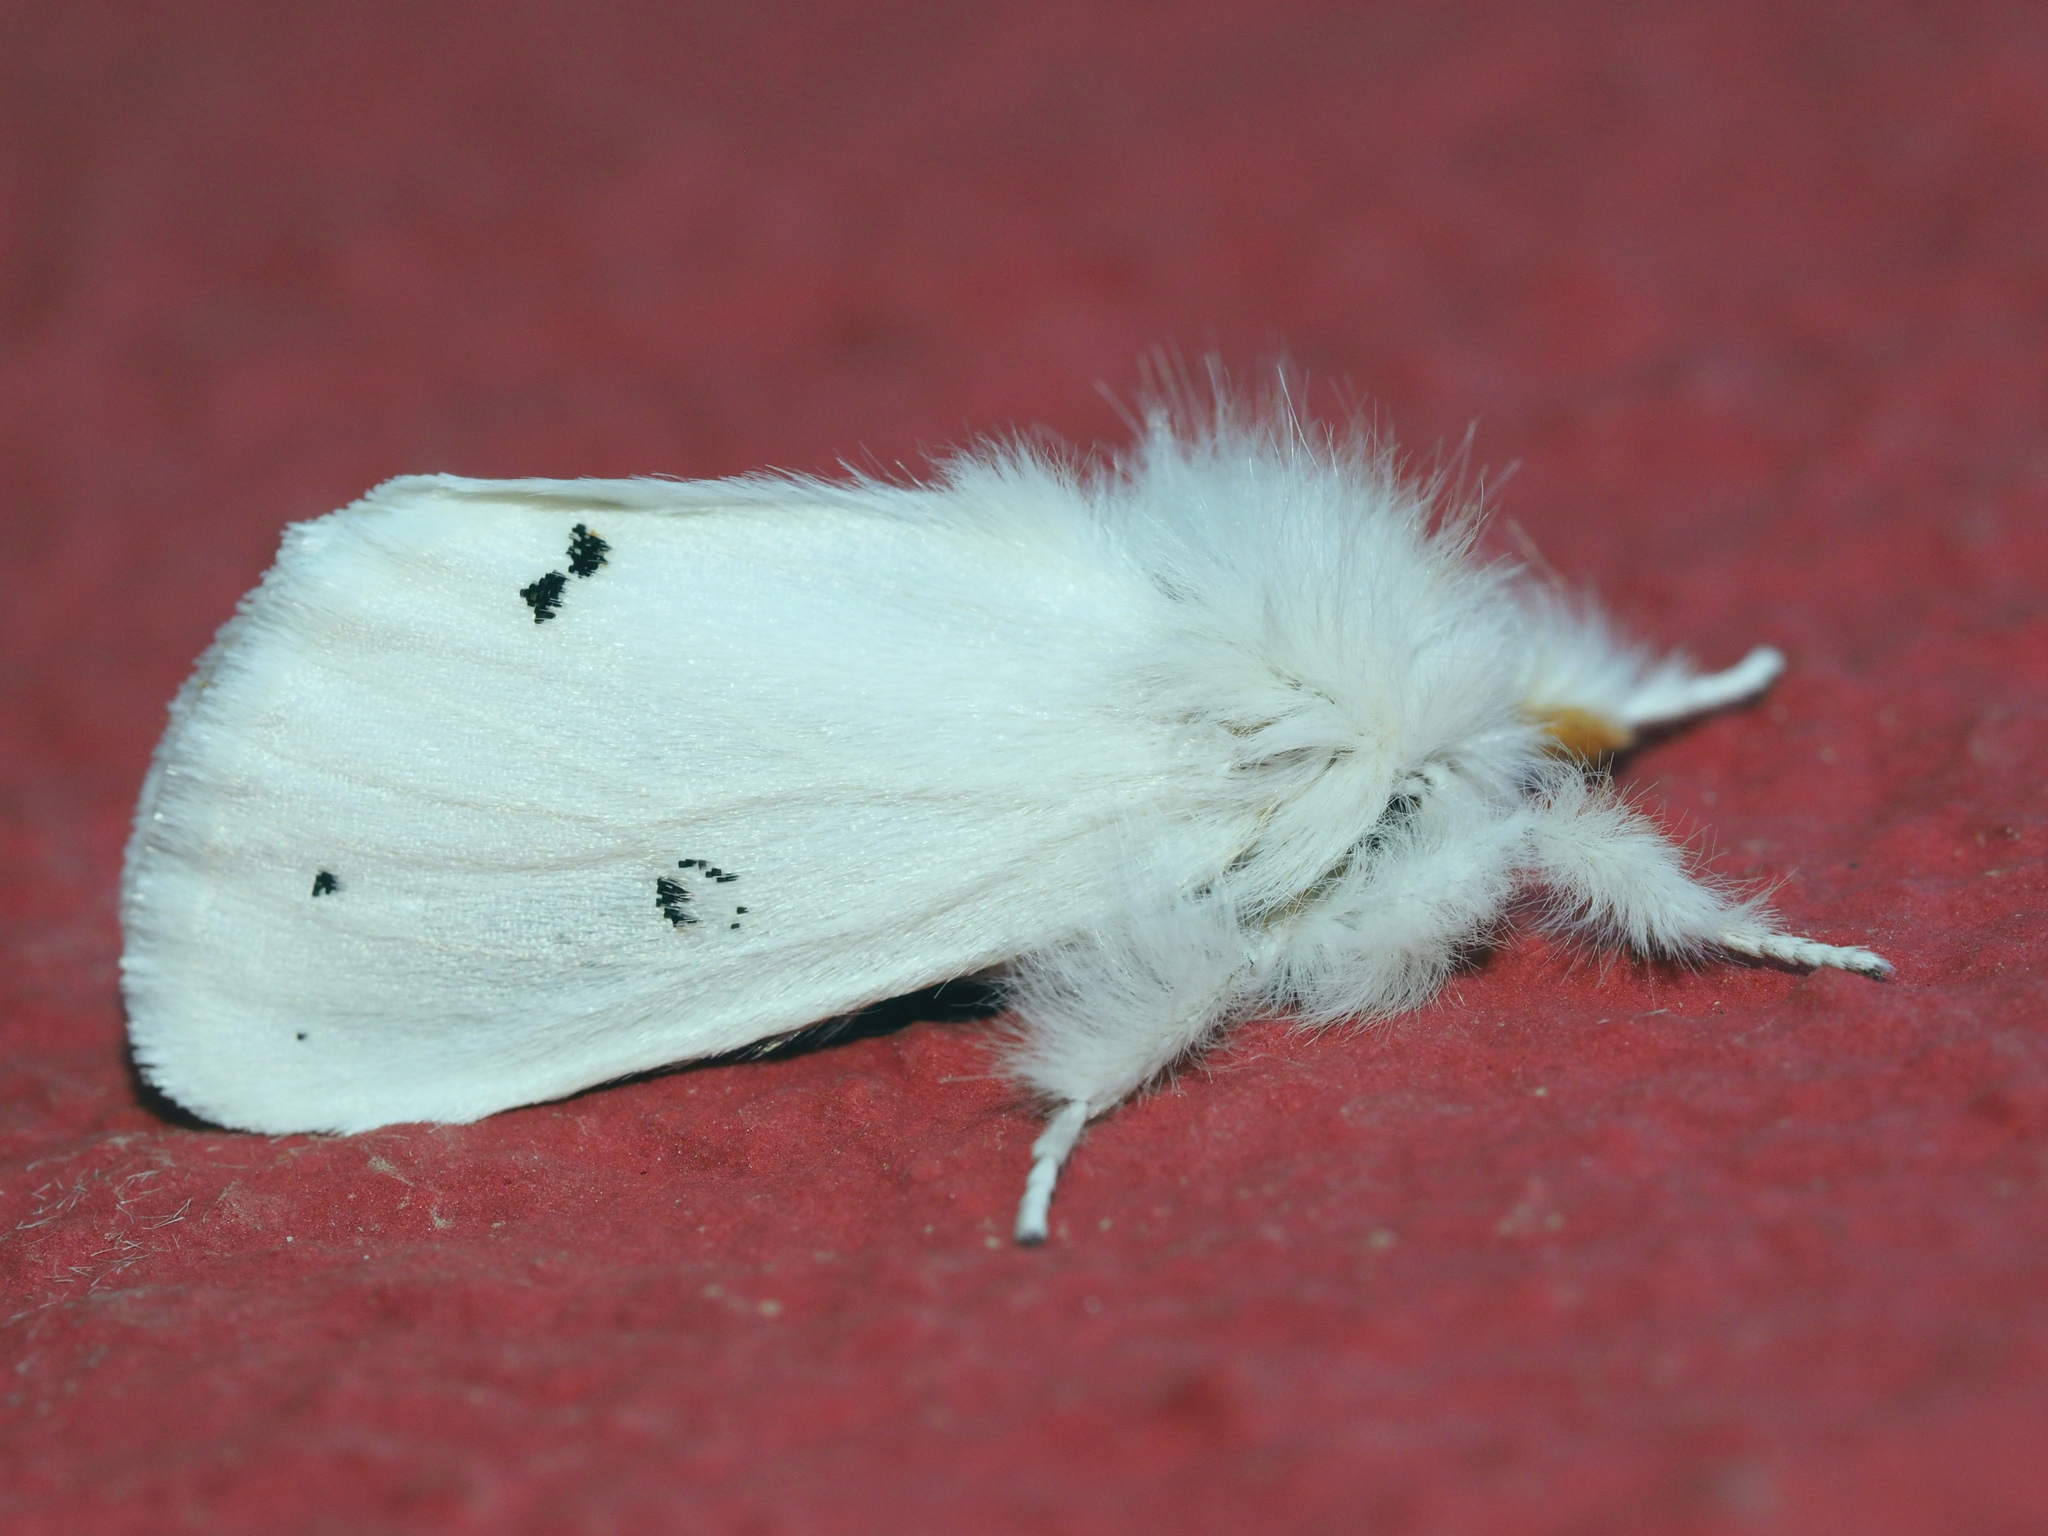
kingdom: Animalia
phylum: Arthropoda
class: Insecta
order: Lepidoptera
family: Erebidae
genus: Euproctis
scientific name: Euproctis chrysorrhoea
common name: Brown-tail
